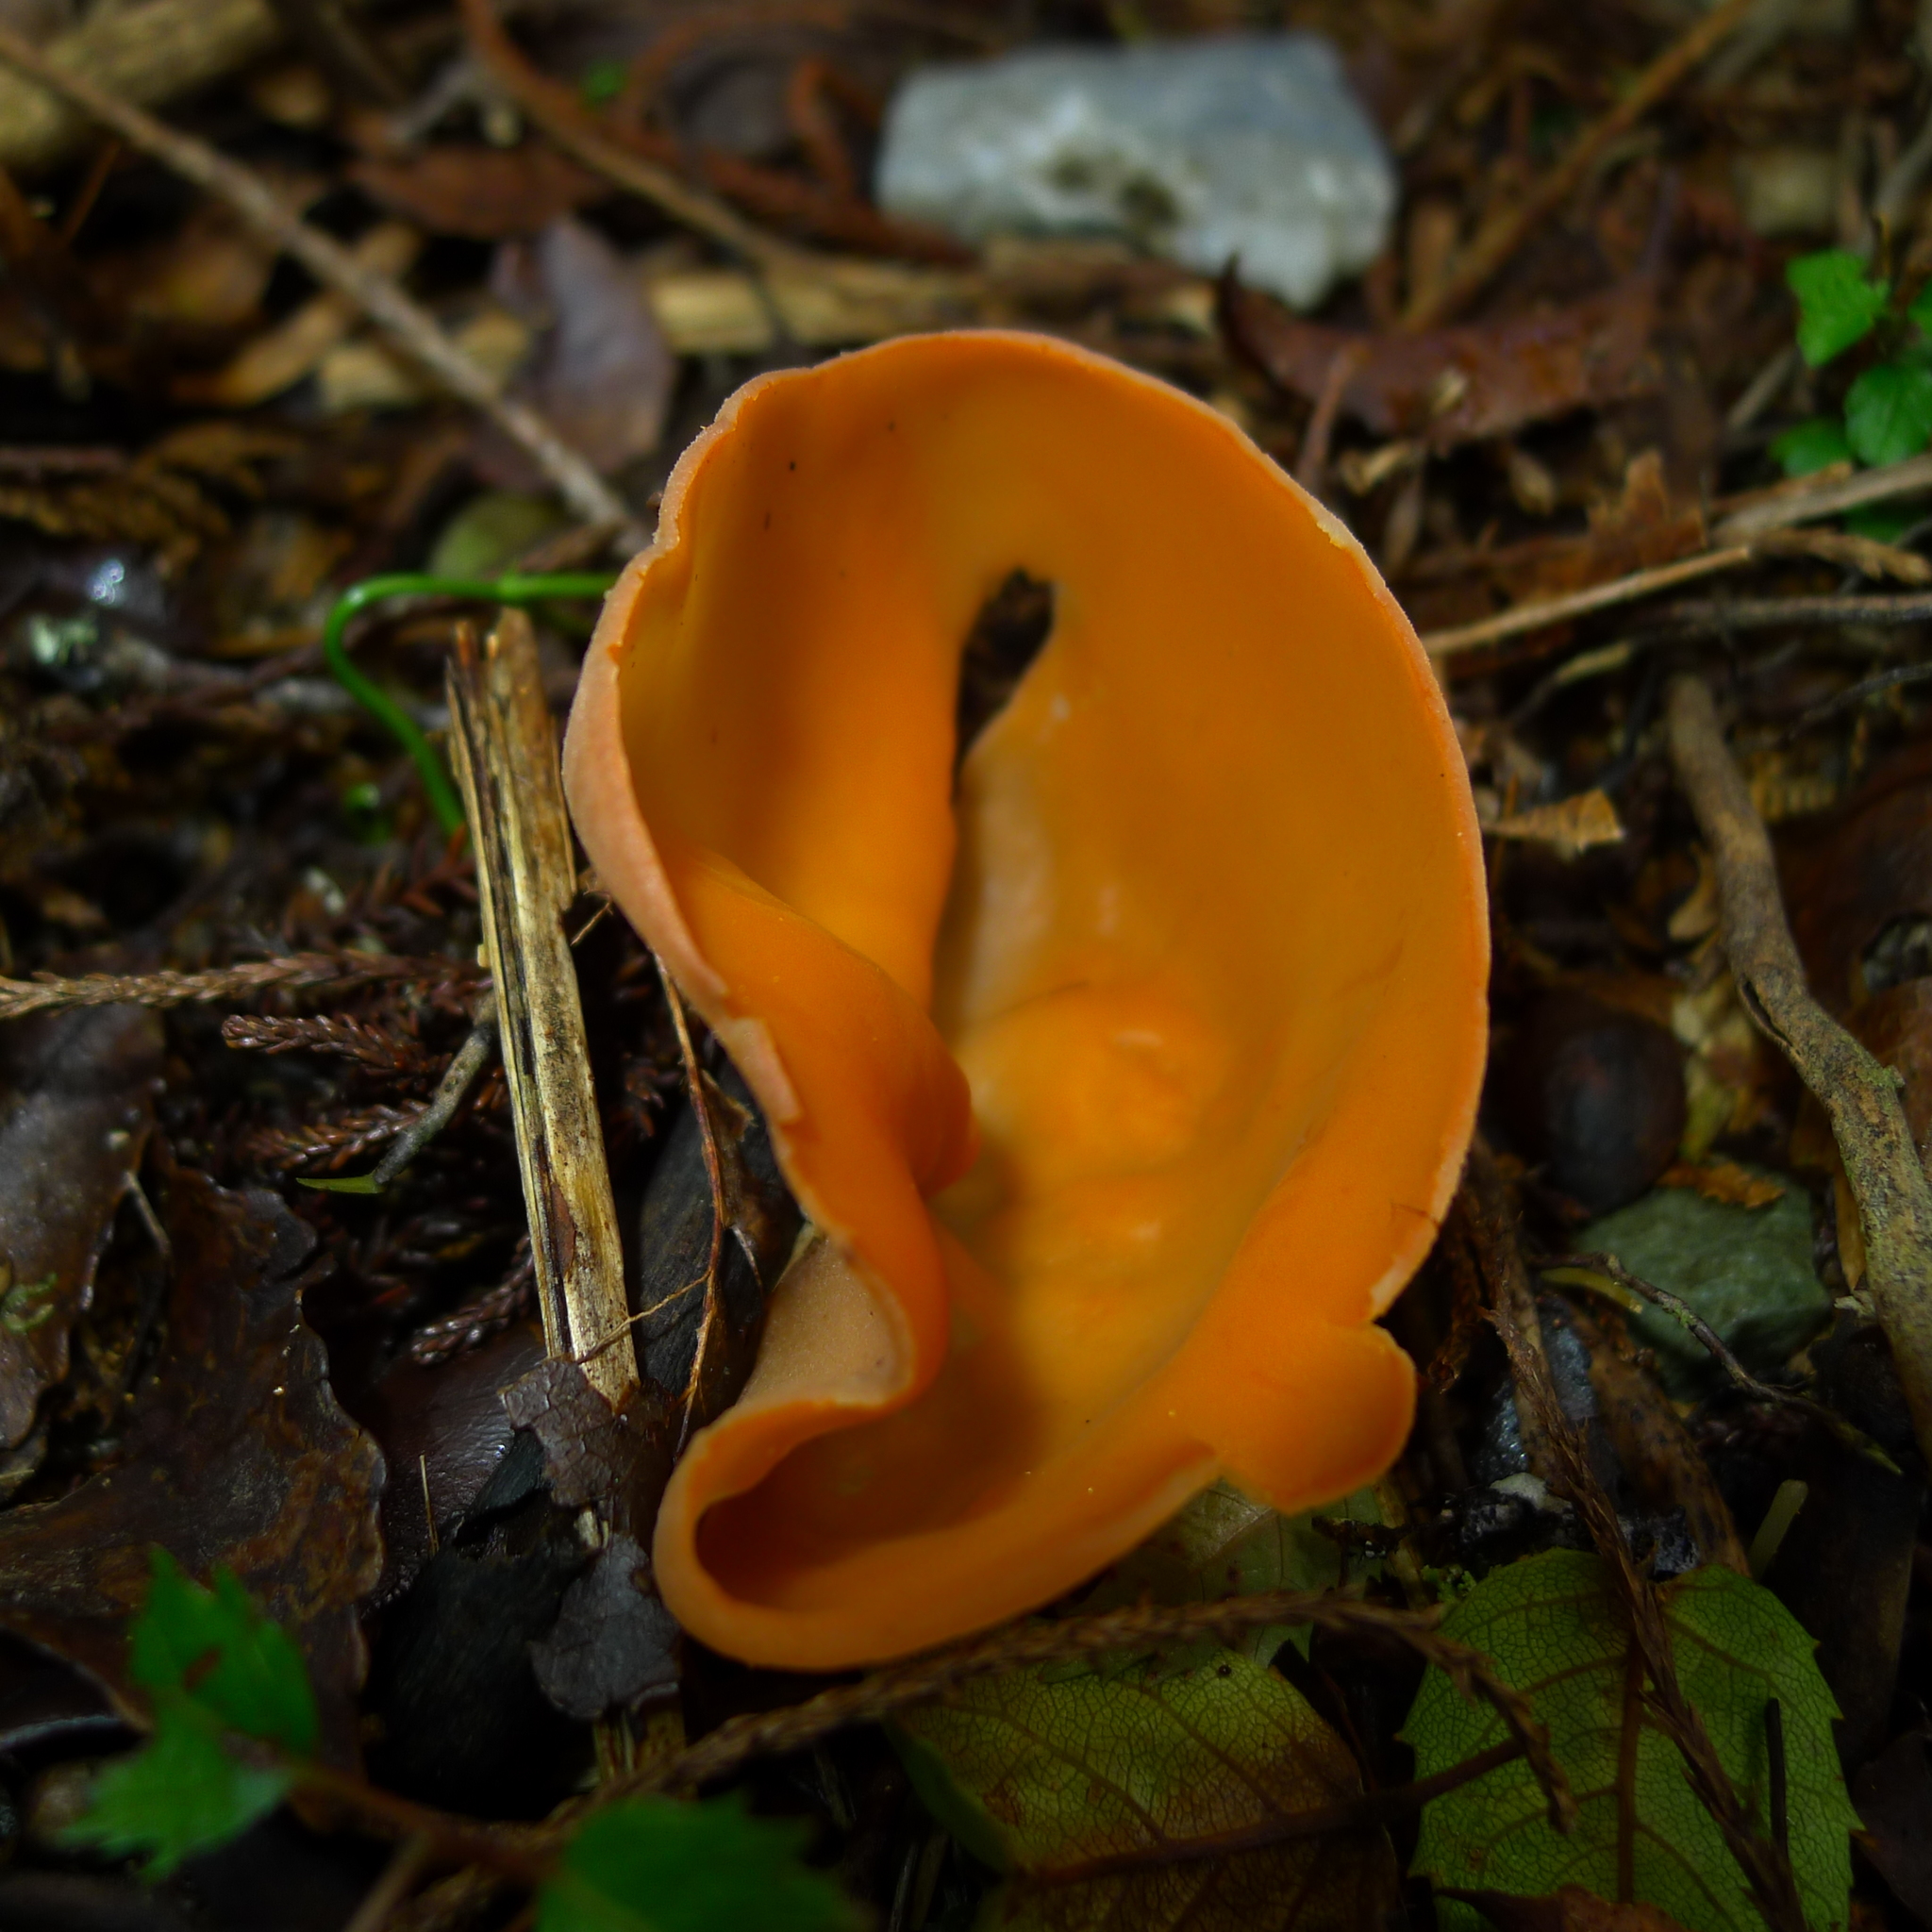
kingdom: Fungi
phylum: Ascomycota
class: Pezizomycetes
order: Pezizales
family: Pyronemataceae
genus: Aleuria
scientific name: Aleuria aurantia
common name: Orange peel fungus
